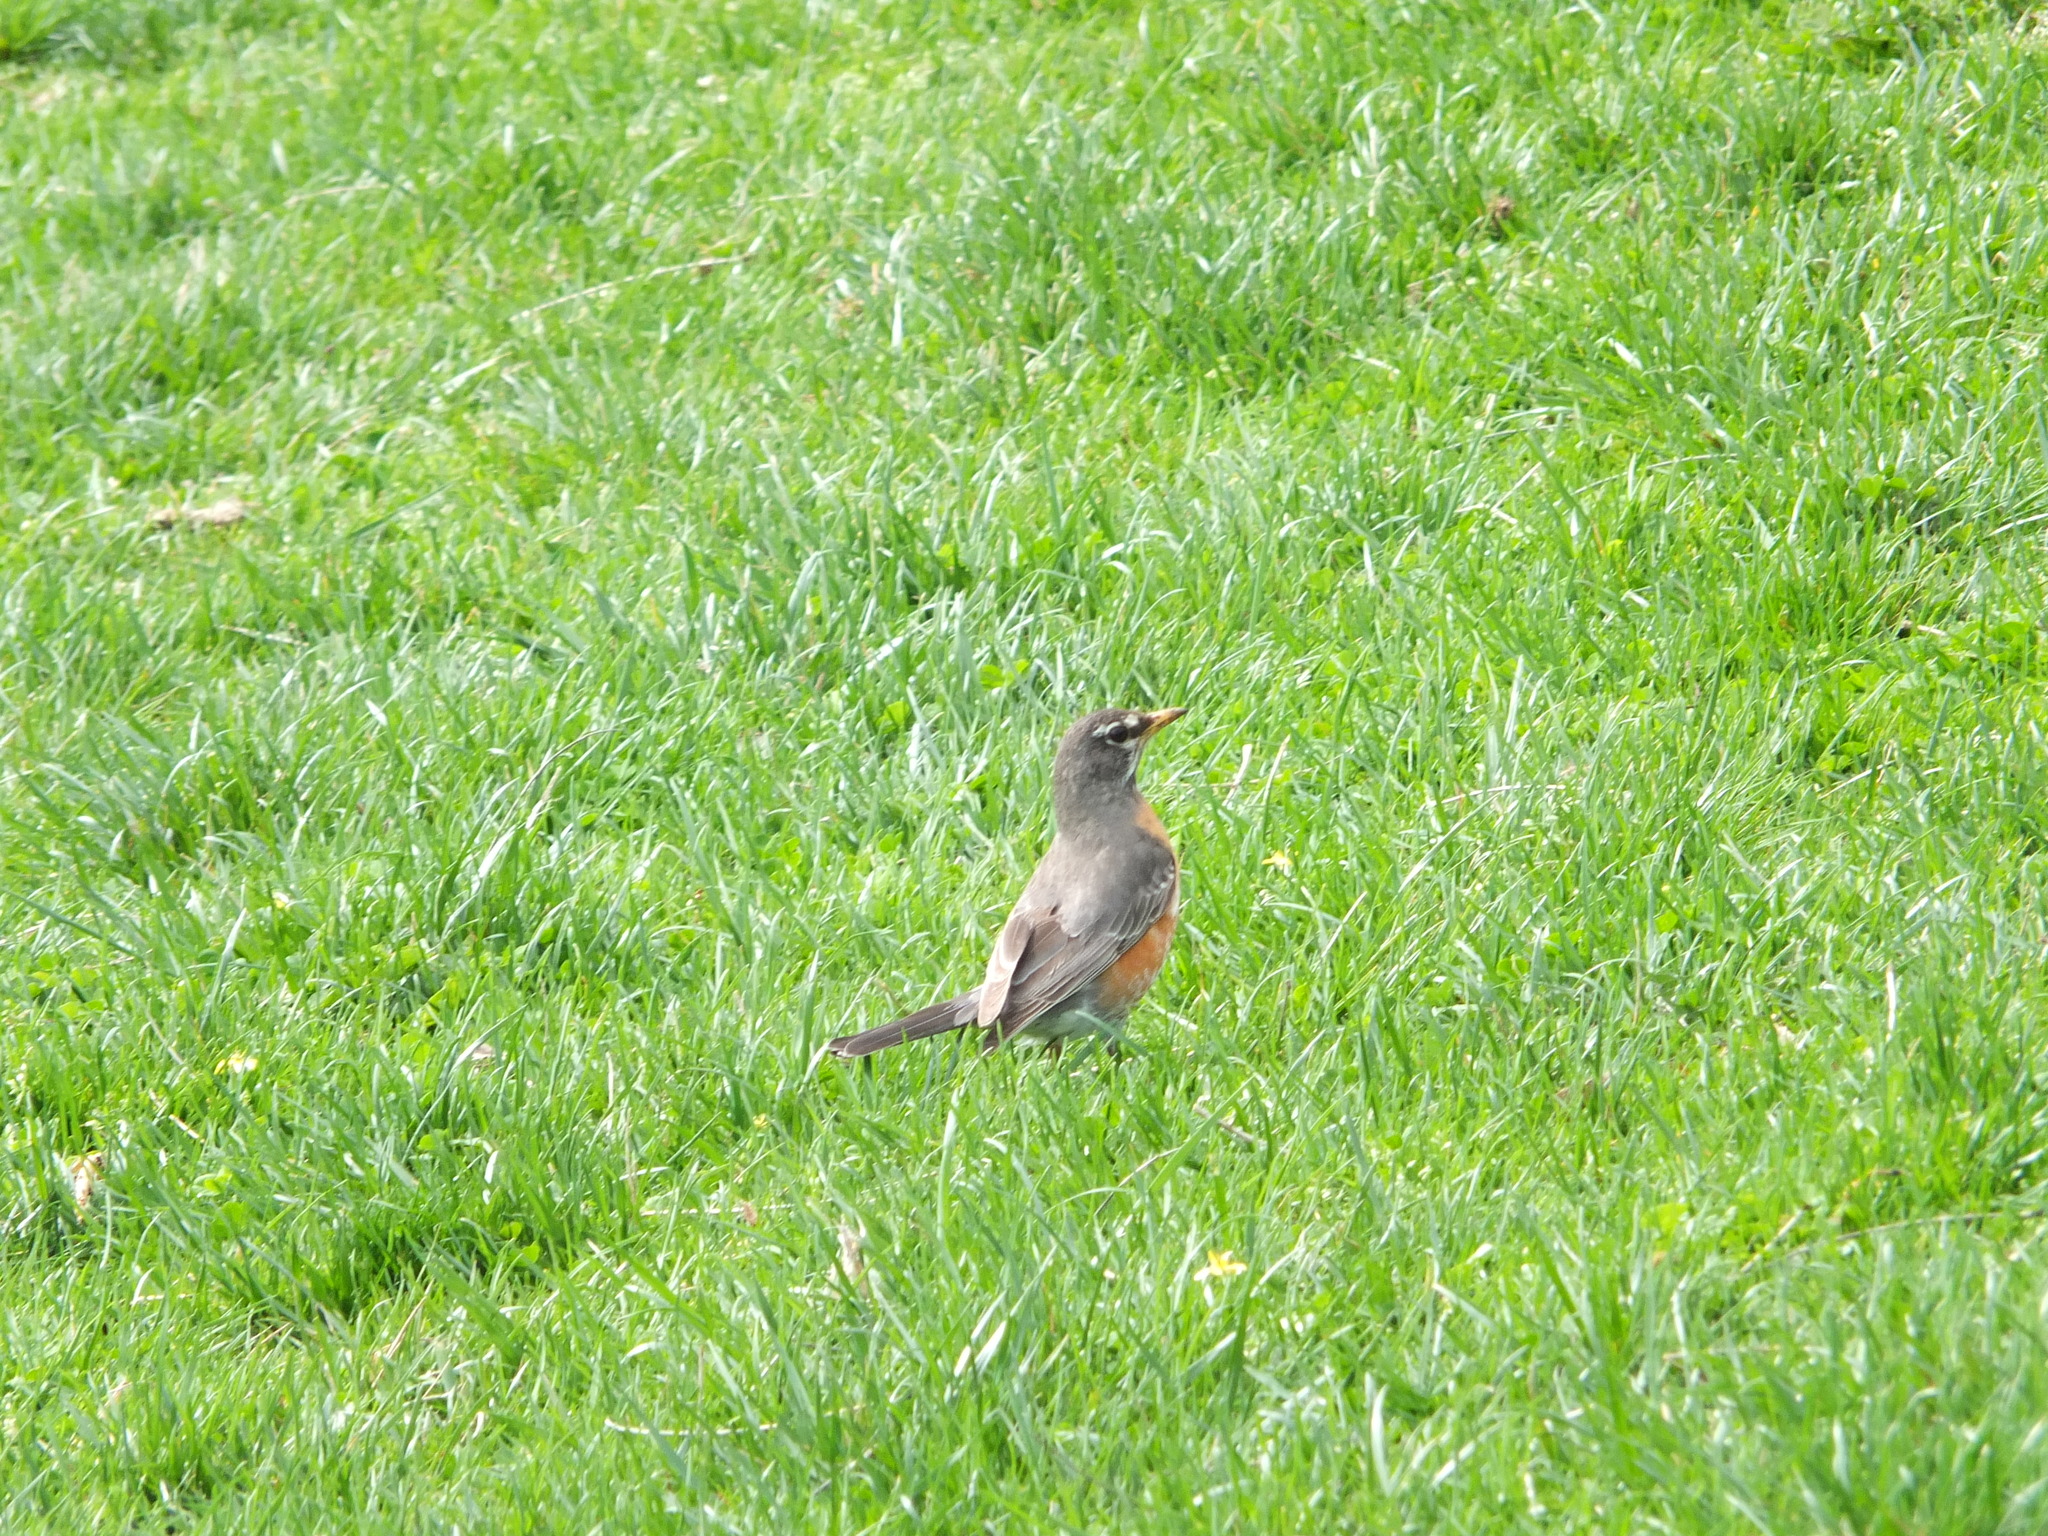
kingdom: Animalia
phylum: Chordata
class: Aves
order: Passeriformes
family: Turdidae
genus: Turdus
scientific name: Turdus migratorius
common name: American robin
